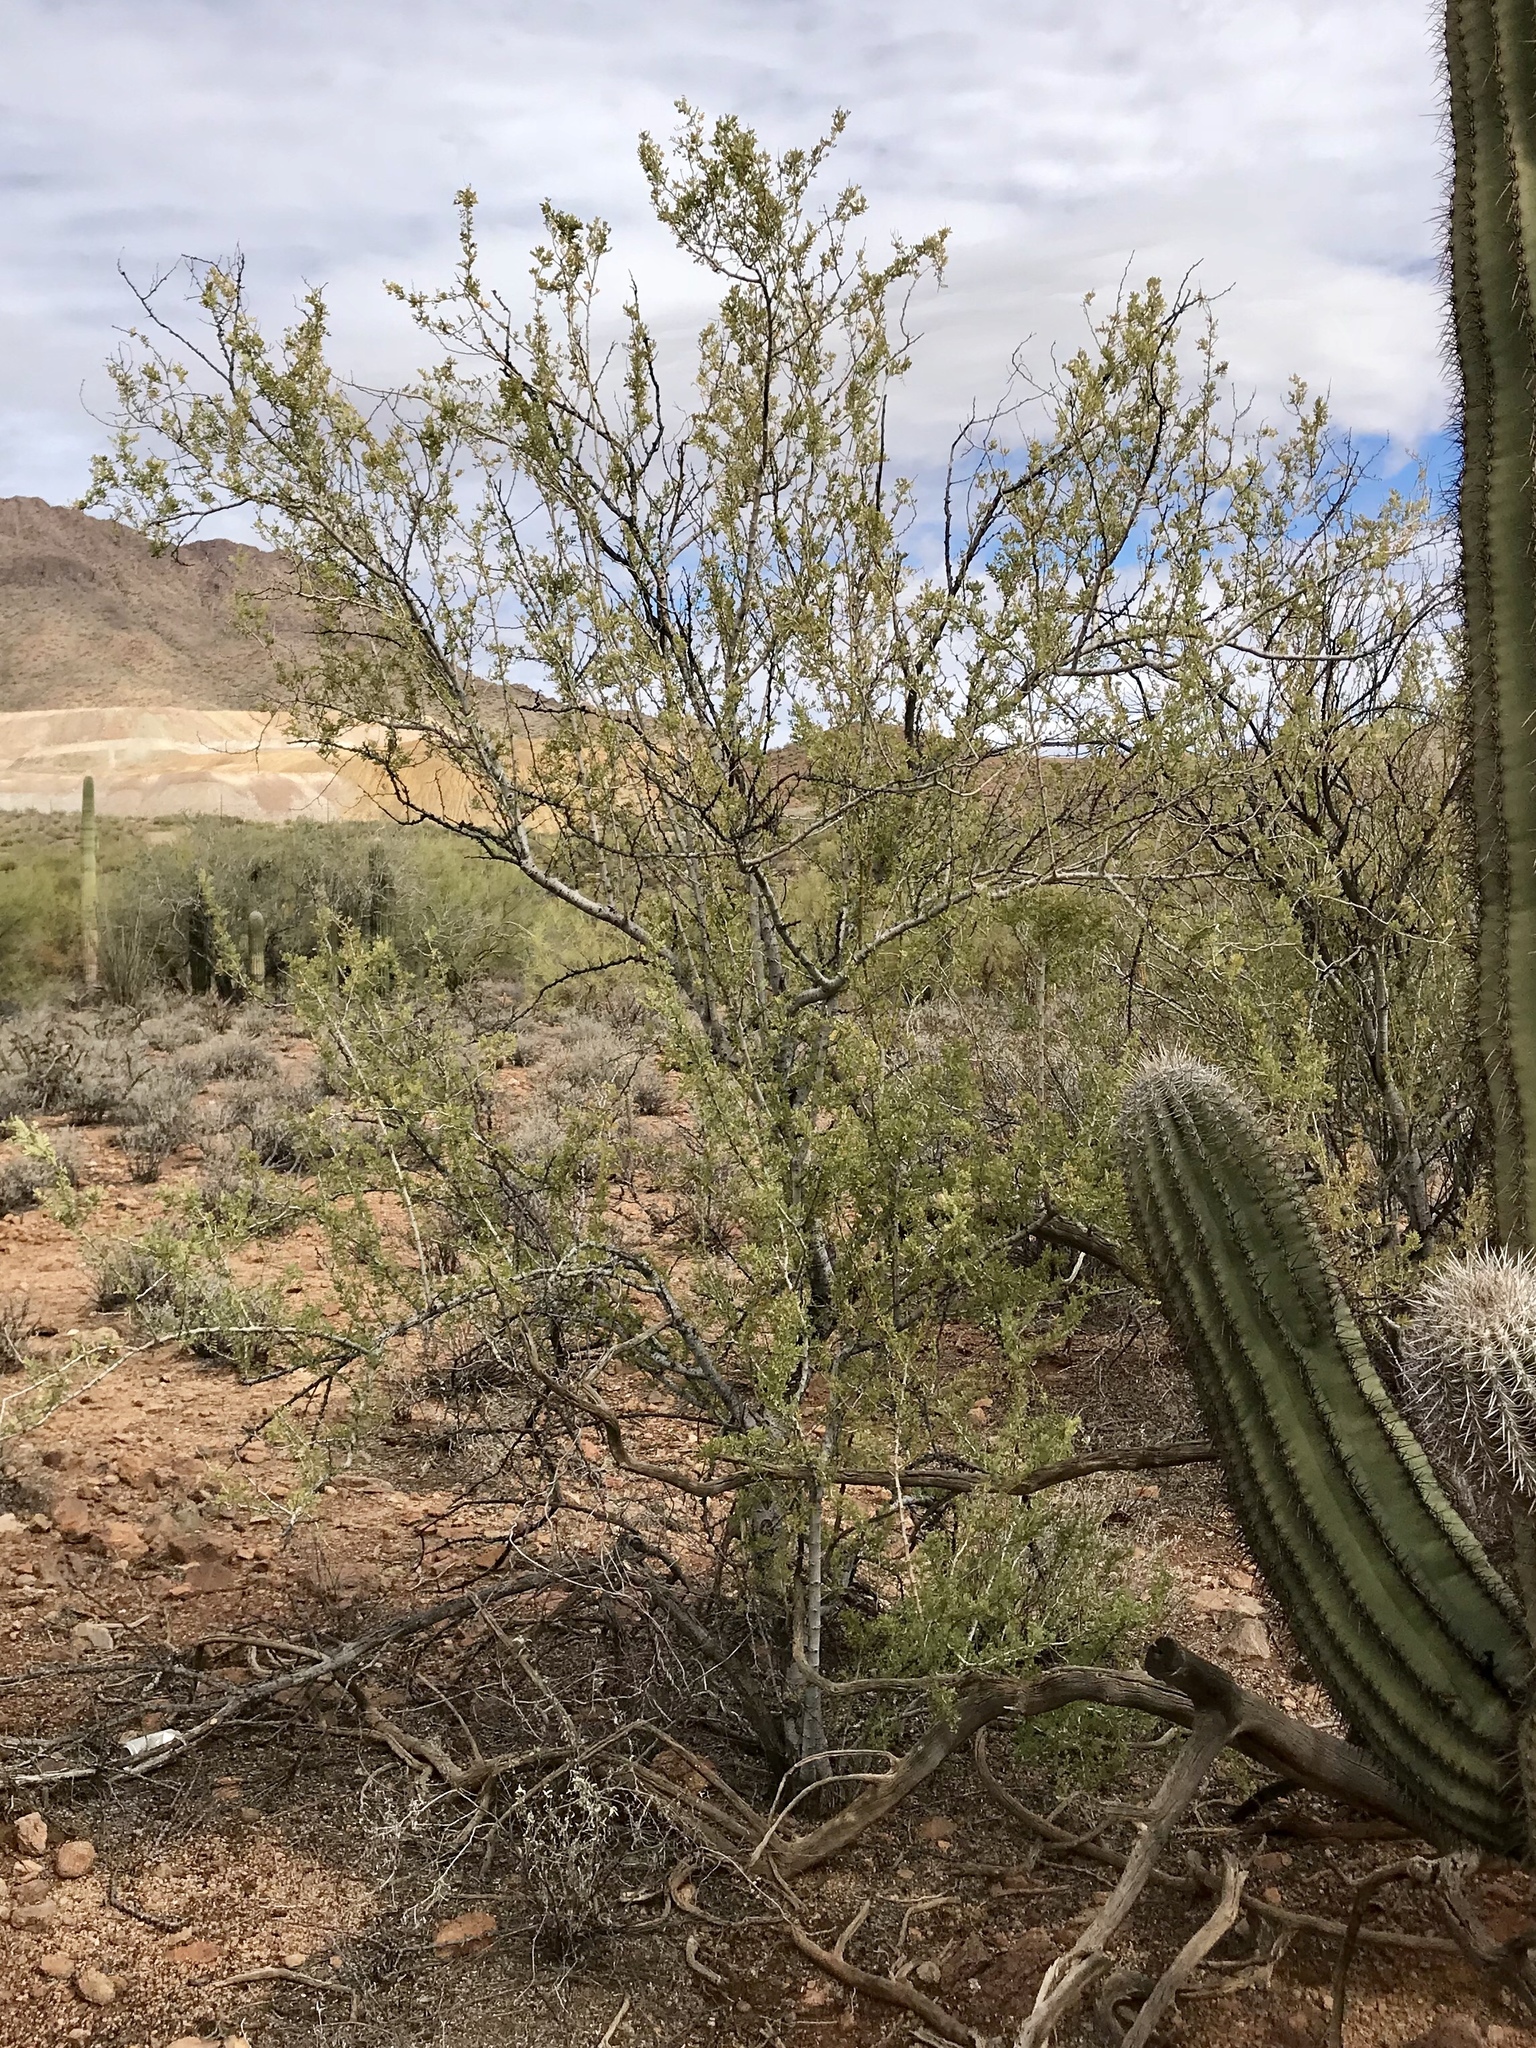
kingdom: Plantae
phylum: Tracheophyta
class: Magnoliopsida
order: Fabales
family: Fabaceae
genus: Olneya
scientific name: Olneya tesota
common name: Desert ironwood
